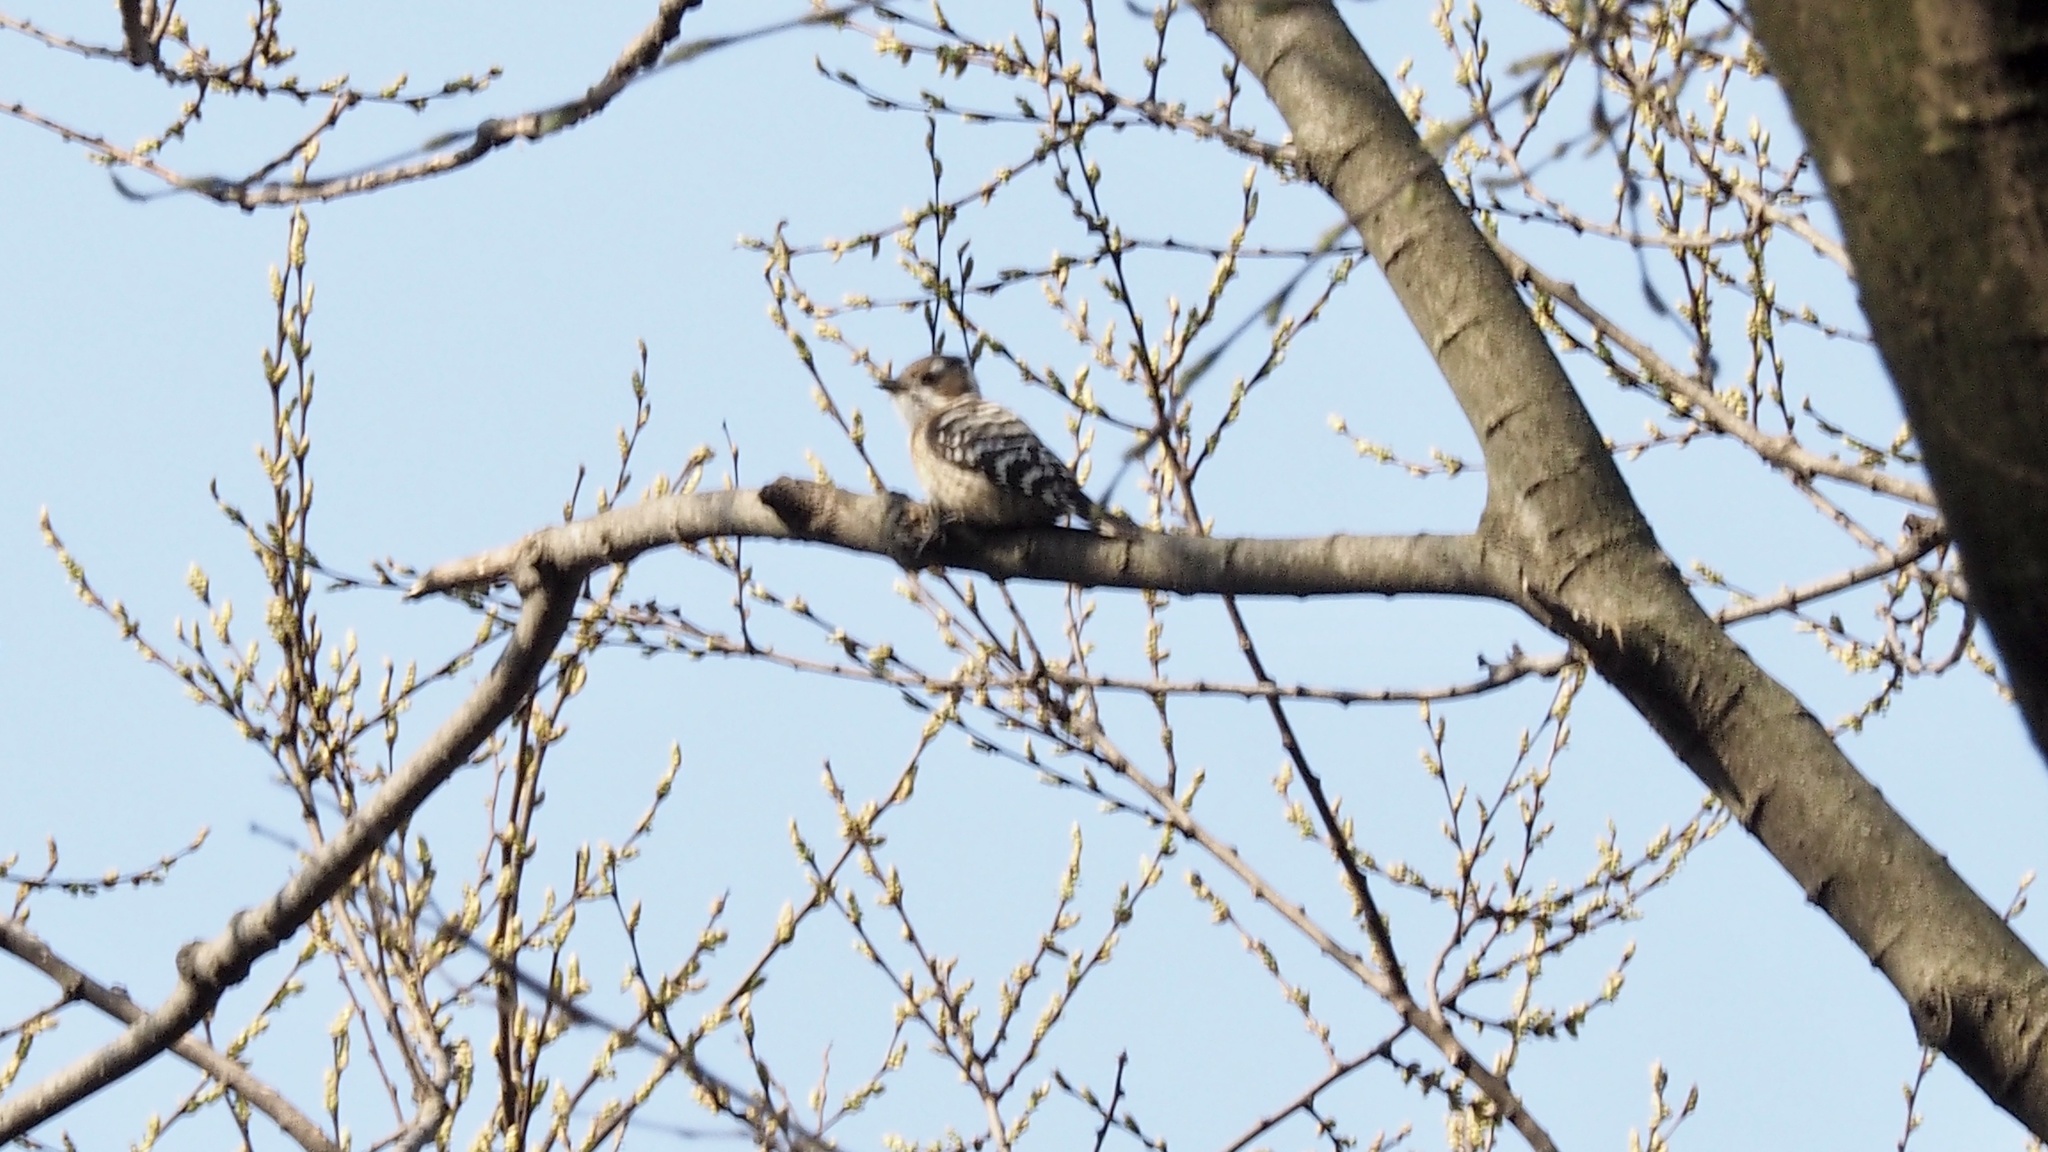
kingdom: Animalia
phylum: Chordata
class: Aves
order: Piciformes
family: Picidae
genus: Yungipicus
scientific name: Yungipicus kizuki
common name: Japanese pygmy woodpecker
